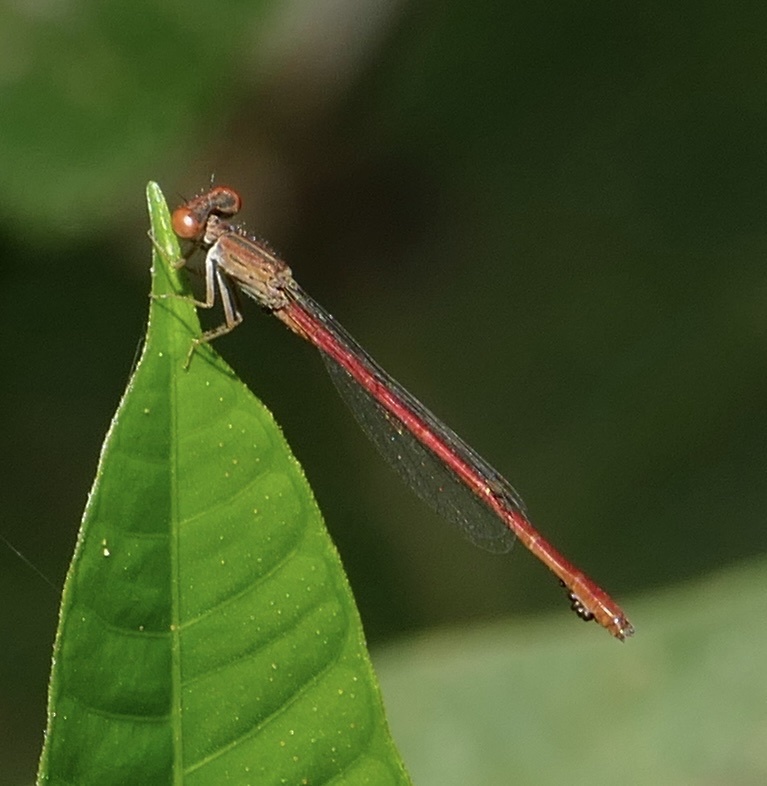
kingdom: Animalia
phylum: Arthropoda
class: Insecta
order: Odonata
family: Coenagrionidae
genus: Telebasis
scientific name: Telebasis salva
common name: Desert firetail
